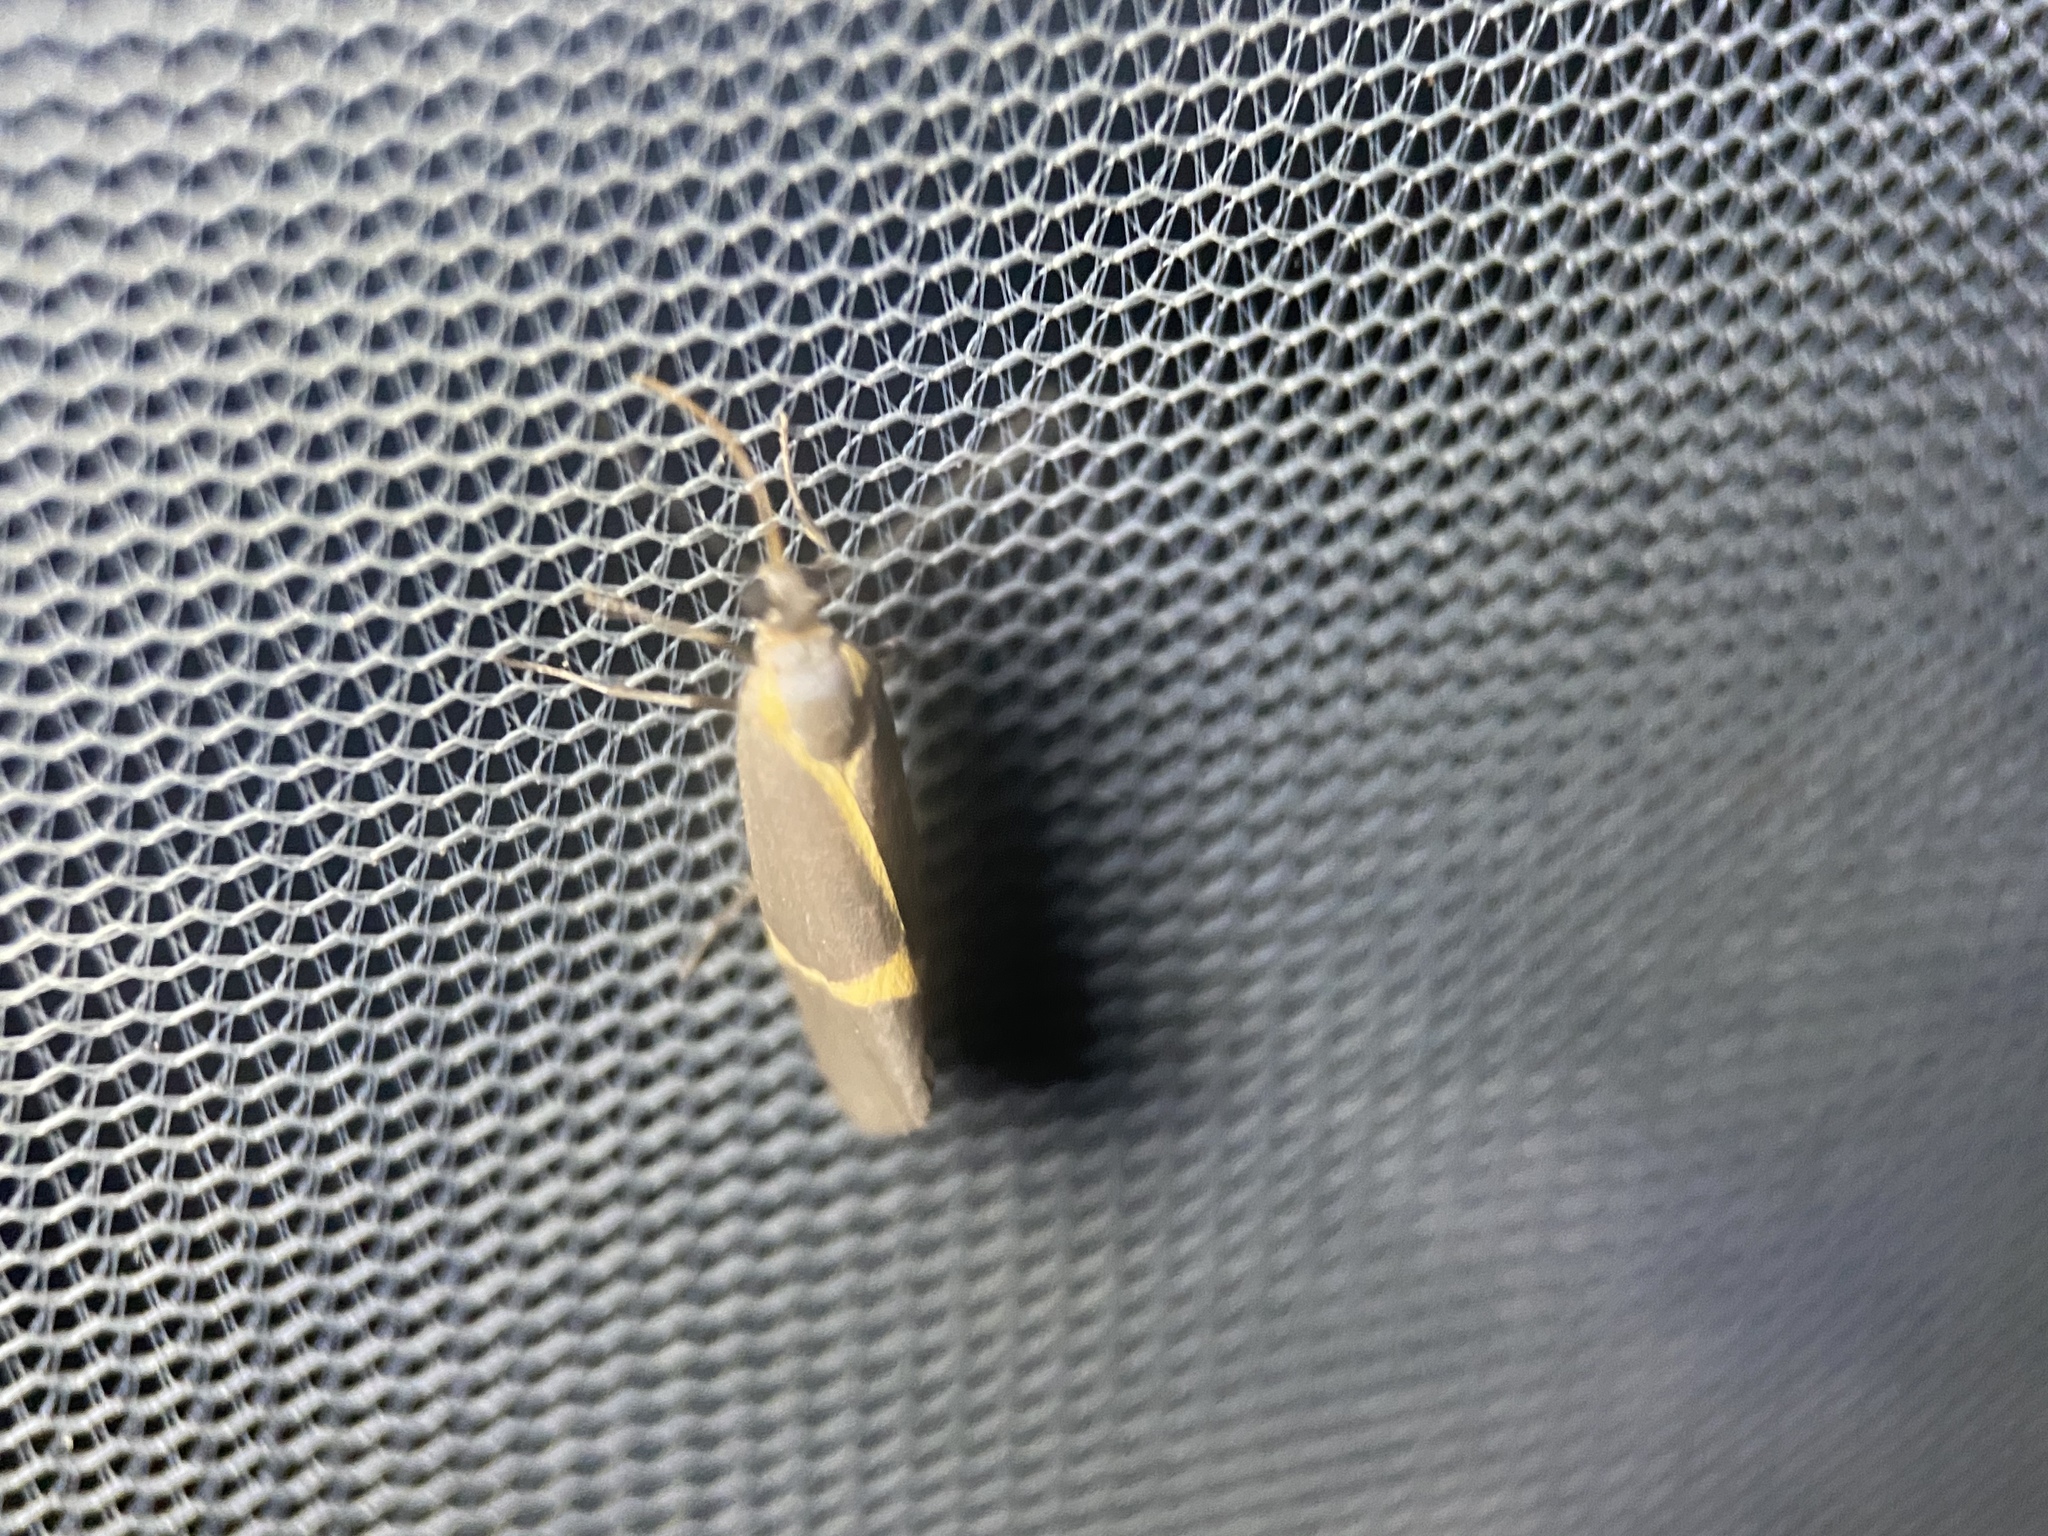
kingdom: Animalia
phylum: Arthropoda
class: Insecta
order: Lepidoptera
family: Erebidae
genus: Cisthene
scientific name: Cisthene barnesii
